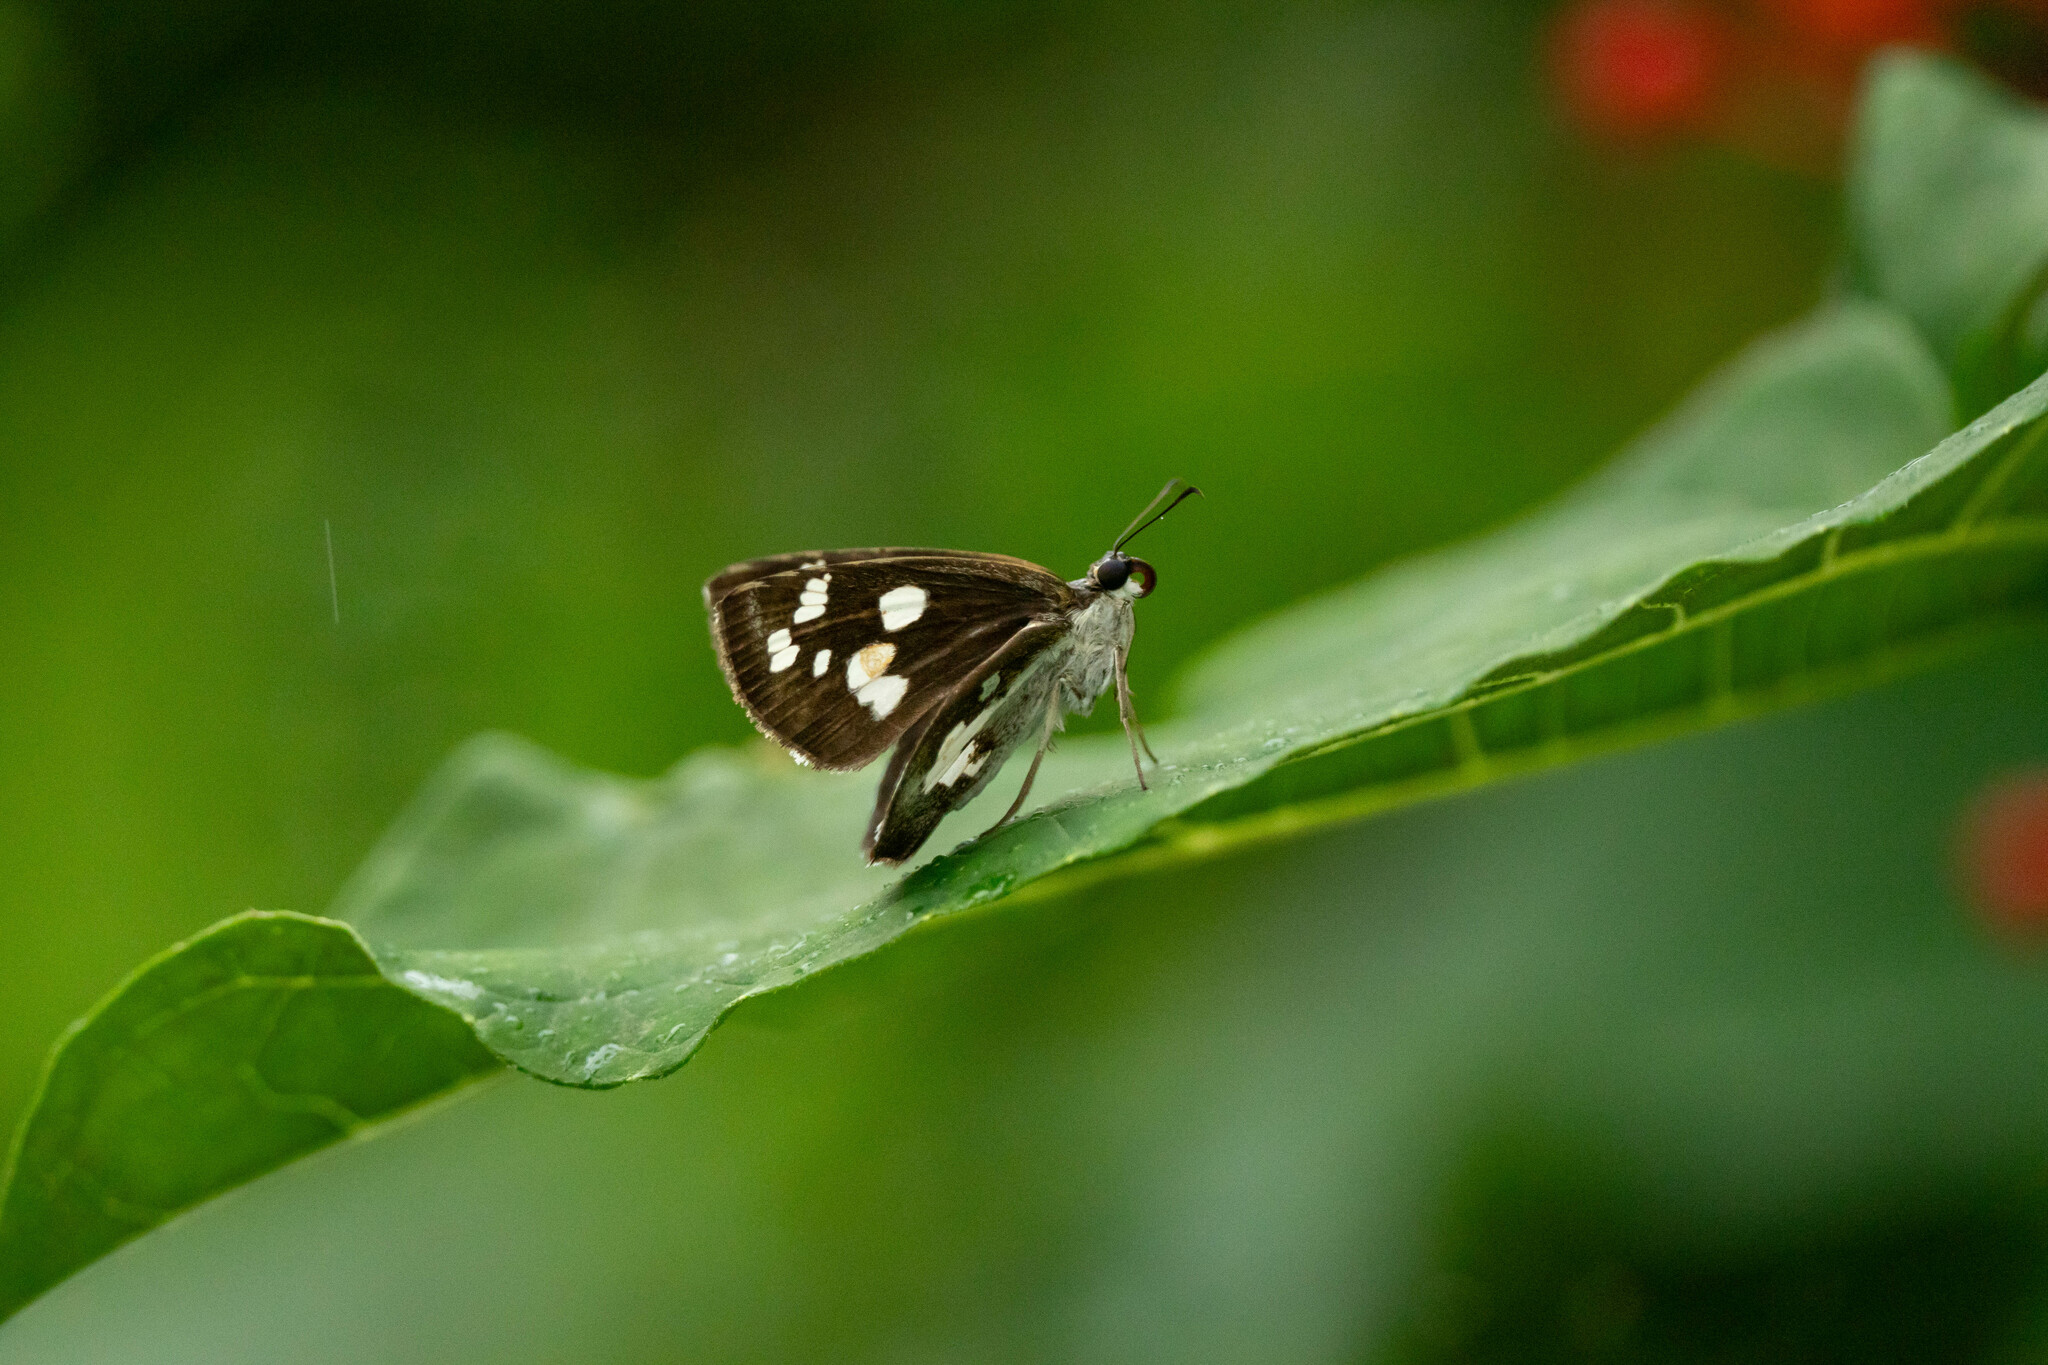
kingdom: Animalia
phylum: Arthropoda
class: Insecta
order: Lepidoptera
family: Hesperiidae
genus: Udaspes
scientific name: Udaspes folus
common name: Grass demon
